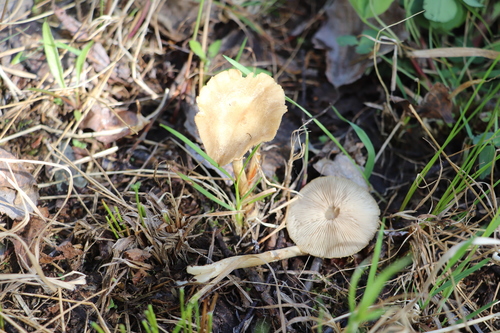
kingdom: Fungi
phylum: Basidiomycota
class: Agaricomycetes
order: Agaricales
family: Strophariaceae
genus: Agrocybe
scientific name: Agrocybe
